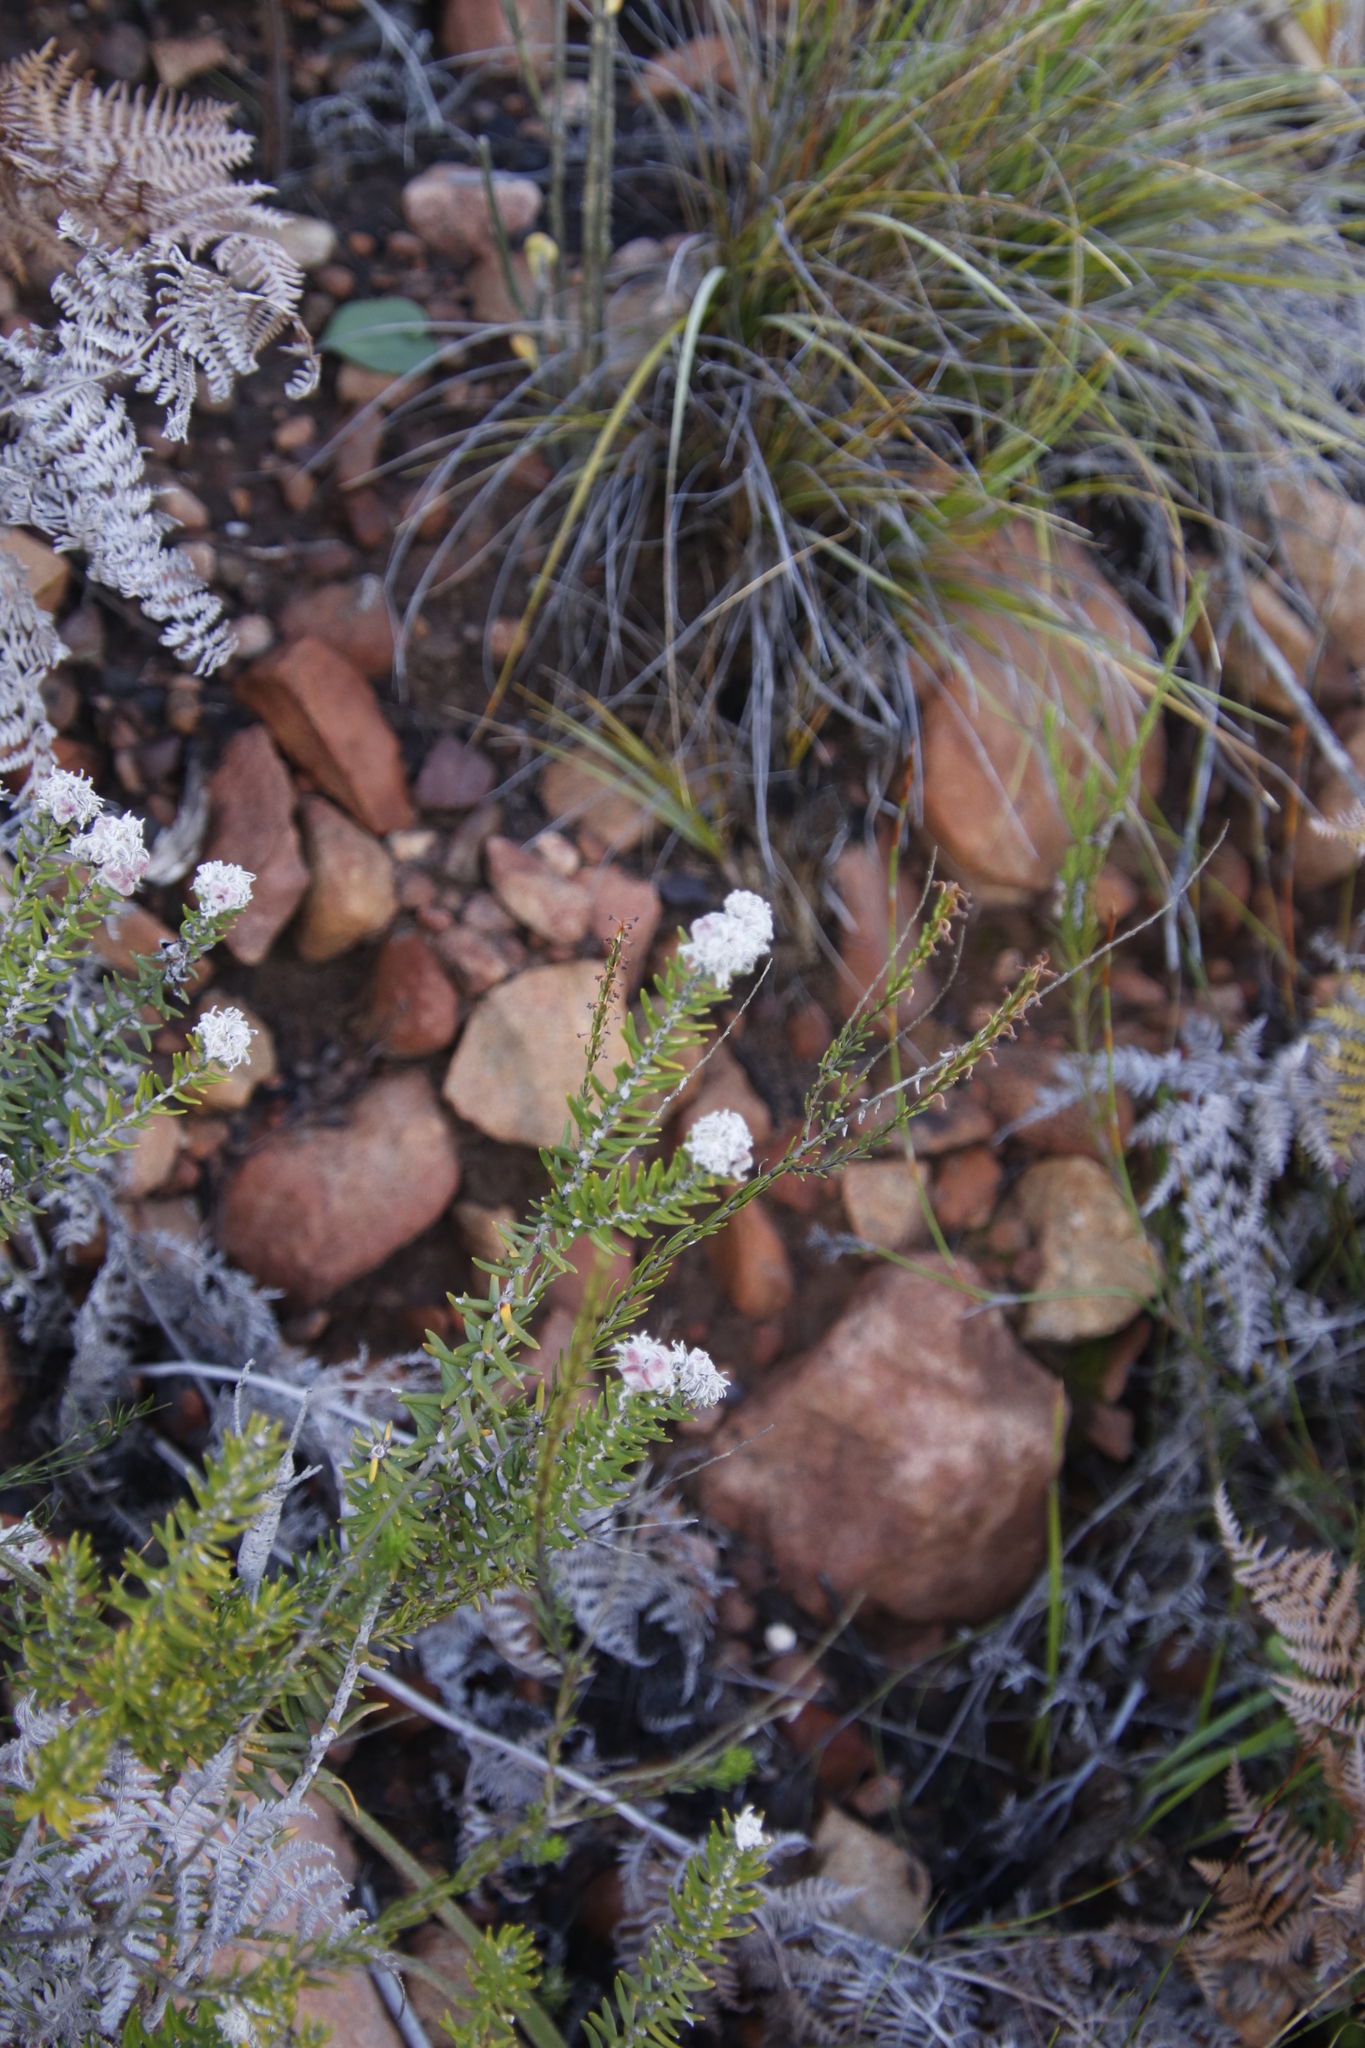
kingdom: Plantae
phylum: Tracheophyta
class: Magnoliopsida
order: Rosales
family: Rhamnaceae
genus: Trichocephalus
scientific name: Trichocephalus stipularis
